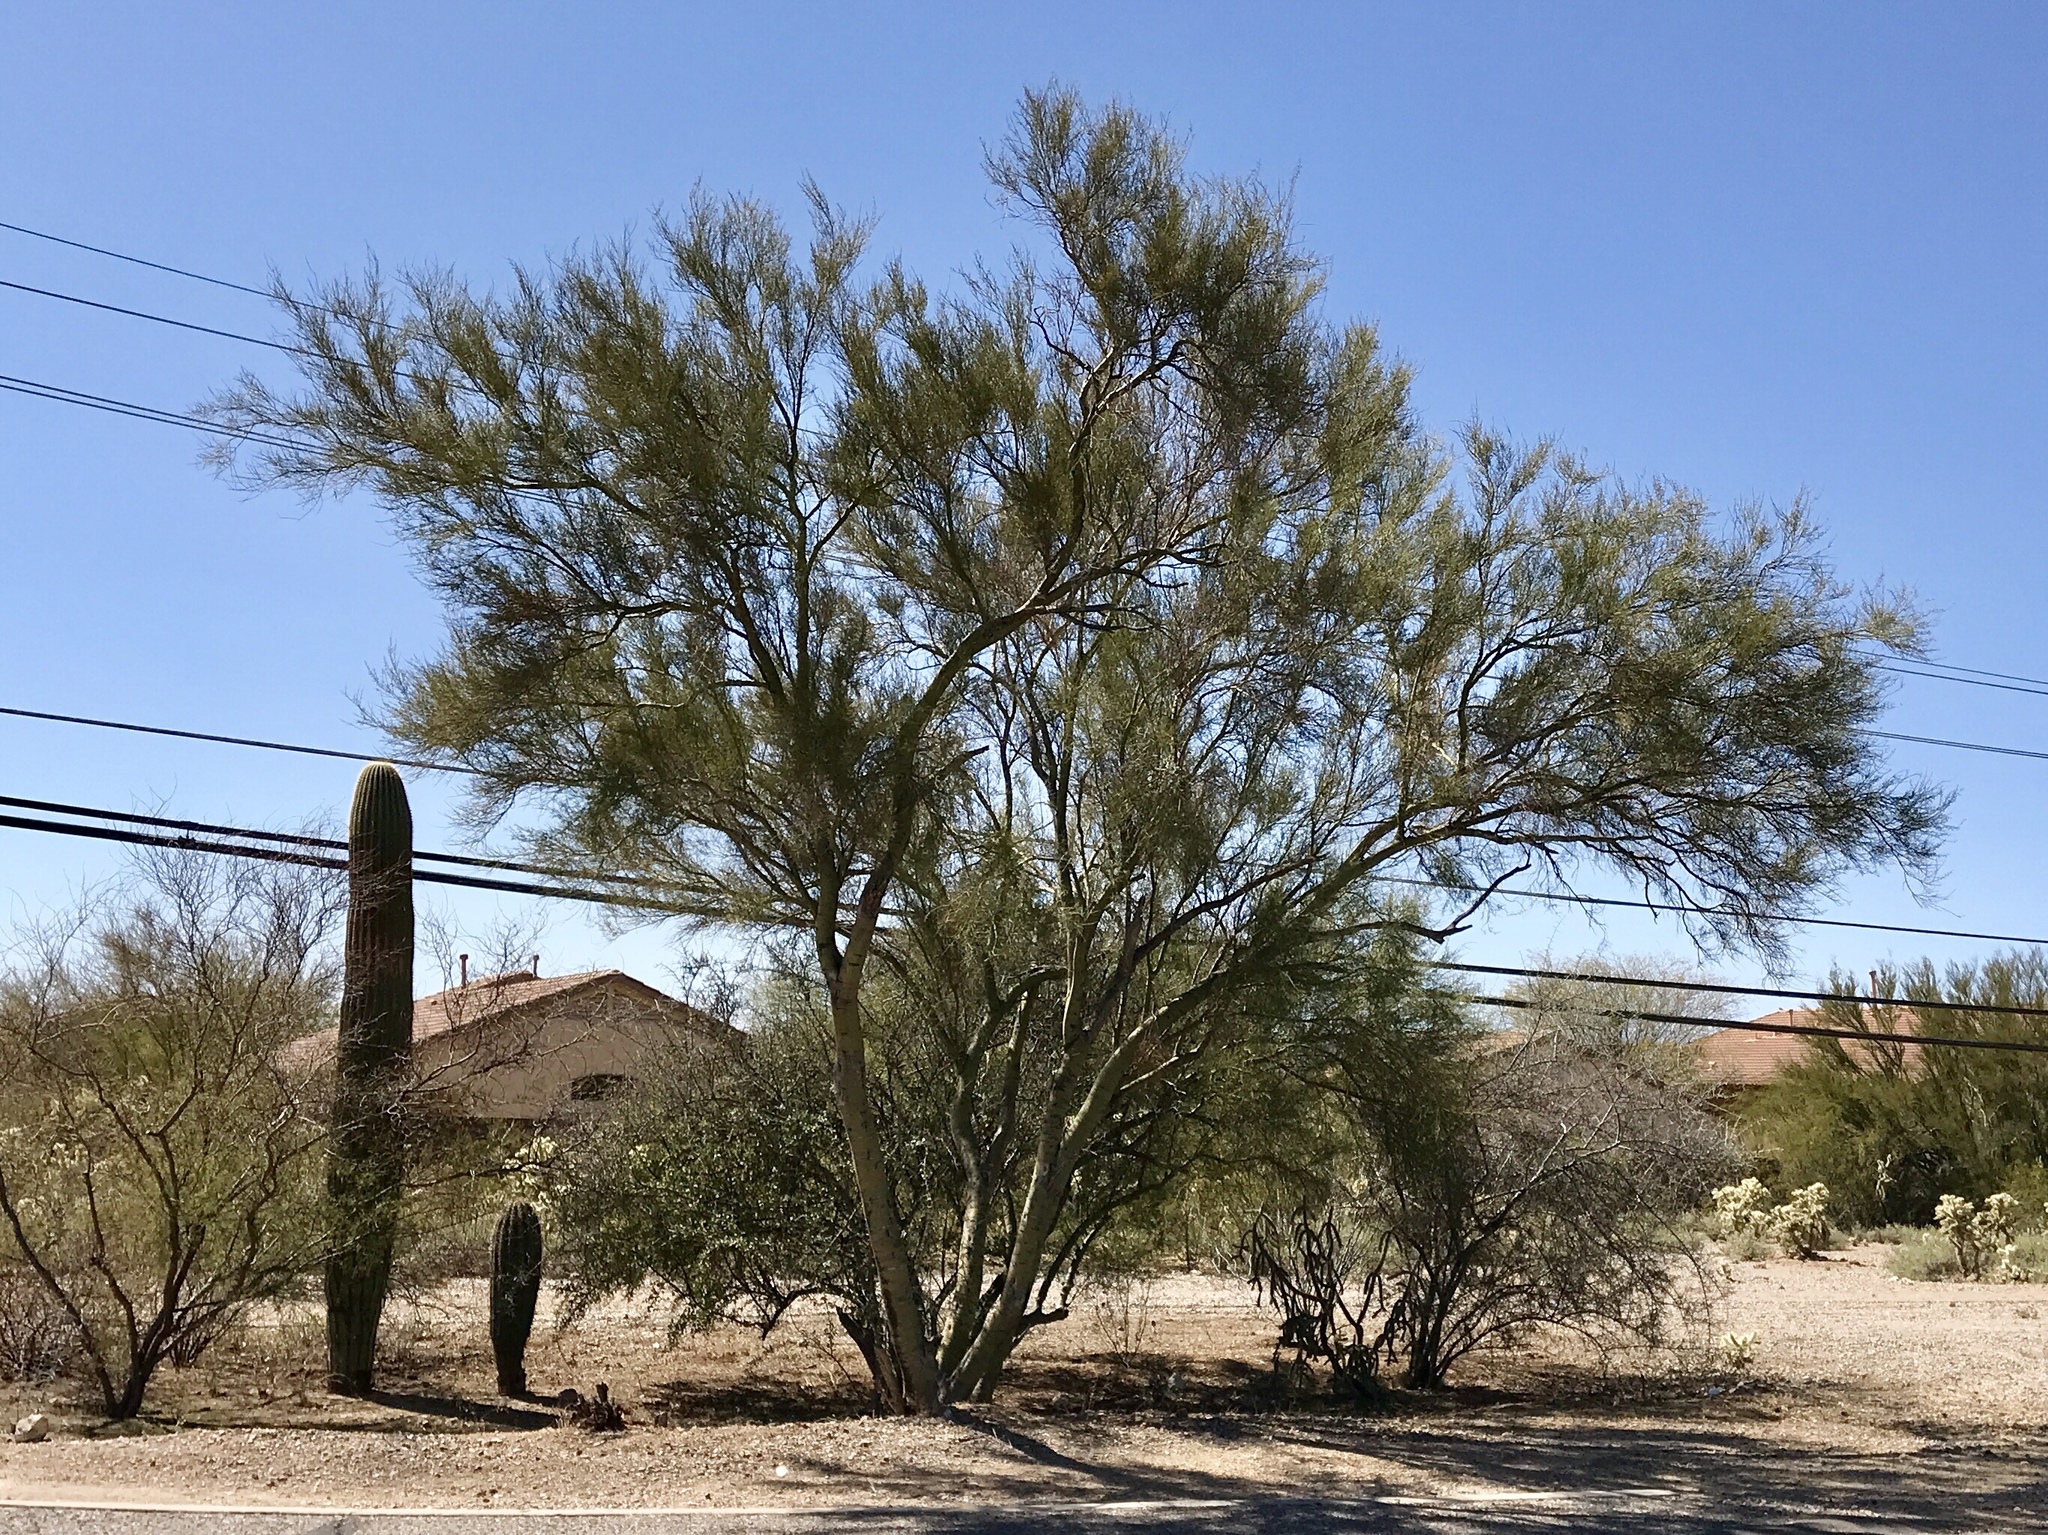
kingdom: Plantae
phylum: Tracheophyta
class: Magnoliopsida
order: Fabales
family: Fabaceae
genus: Parkinsonia
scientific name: Parkinsonia microphylla
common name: Yellow paloverde
